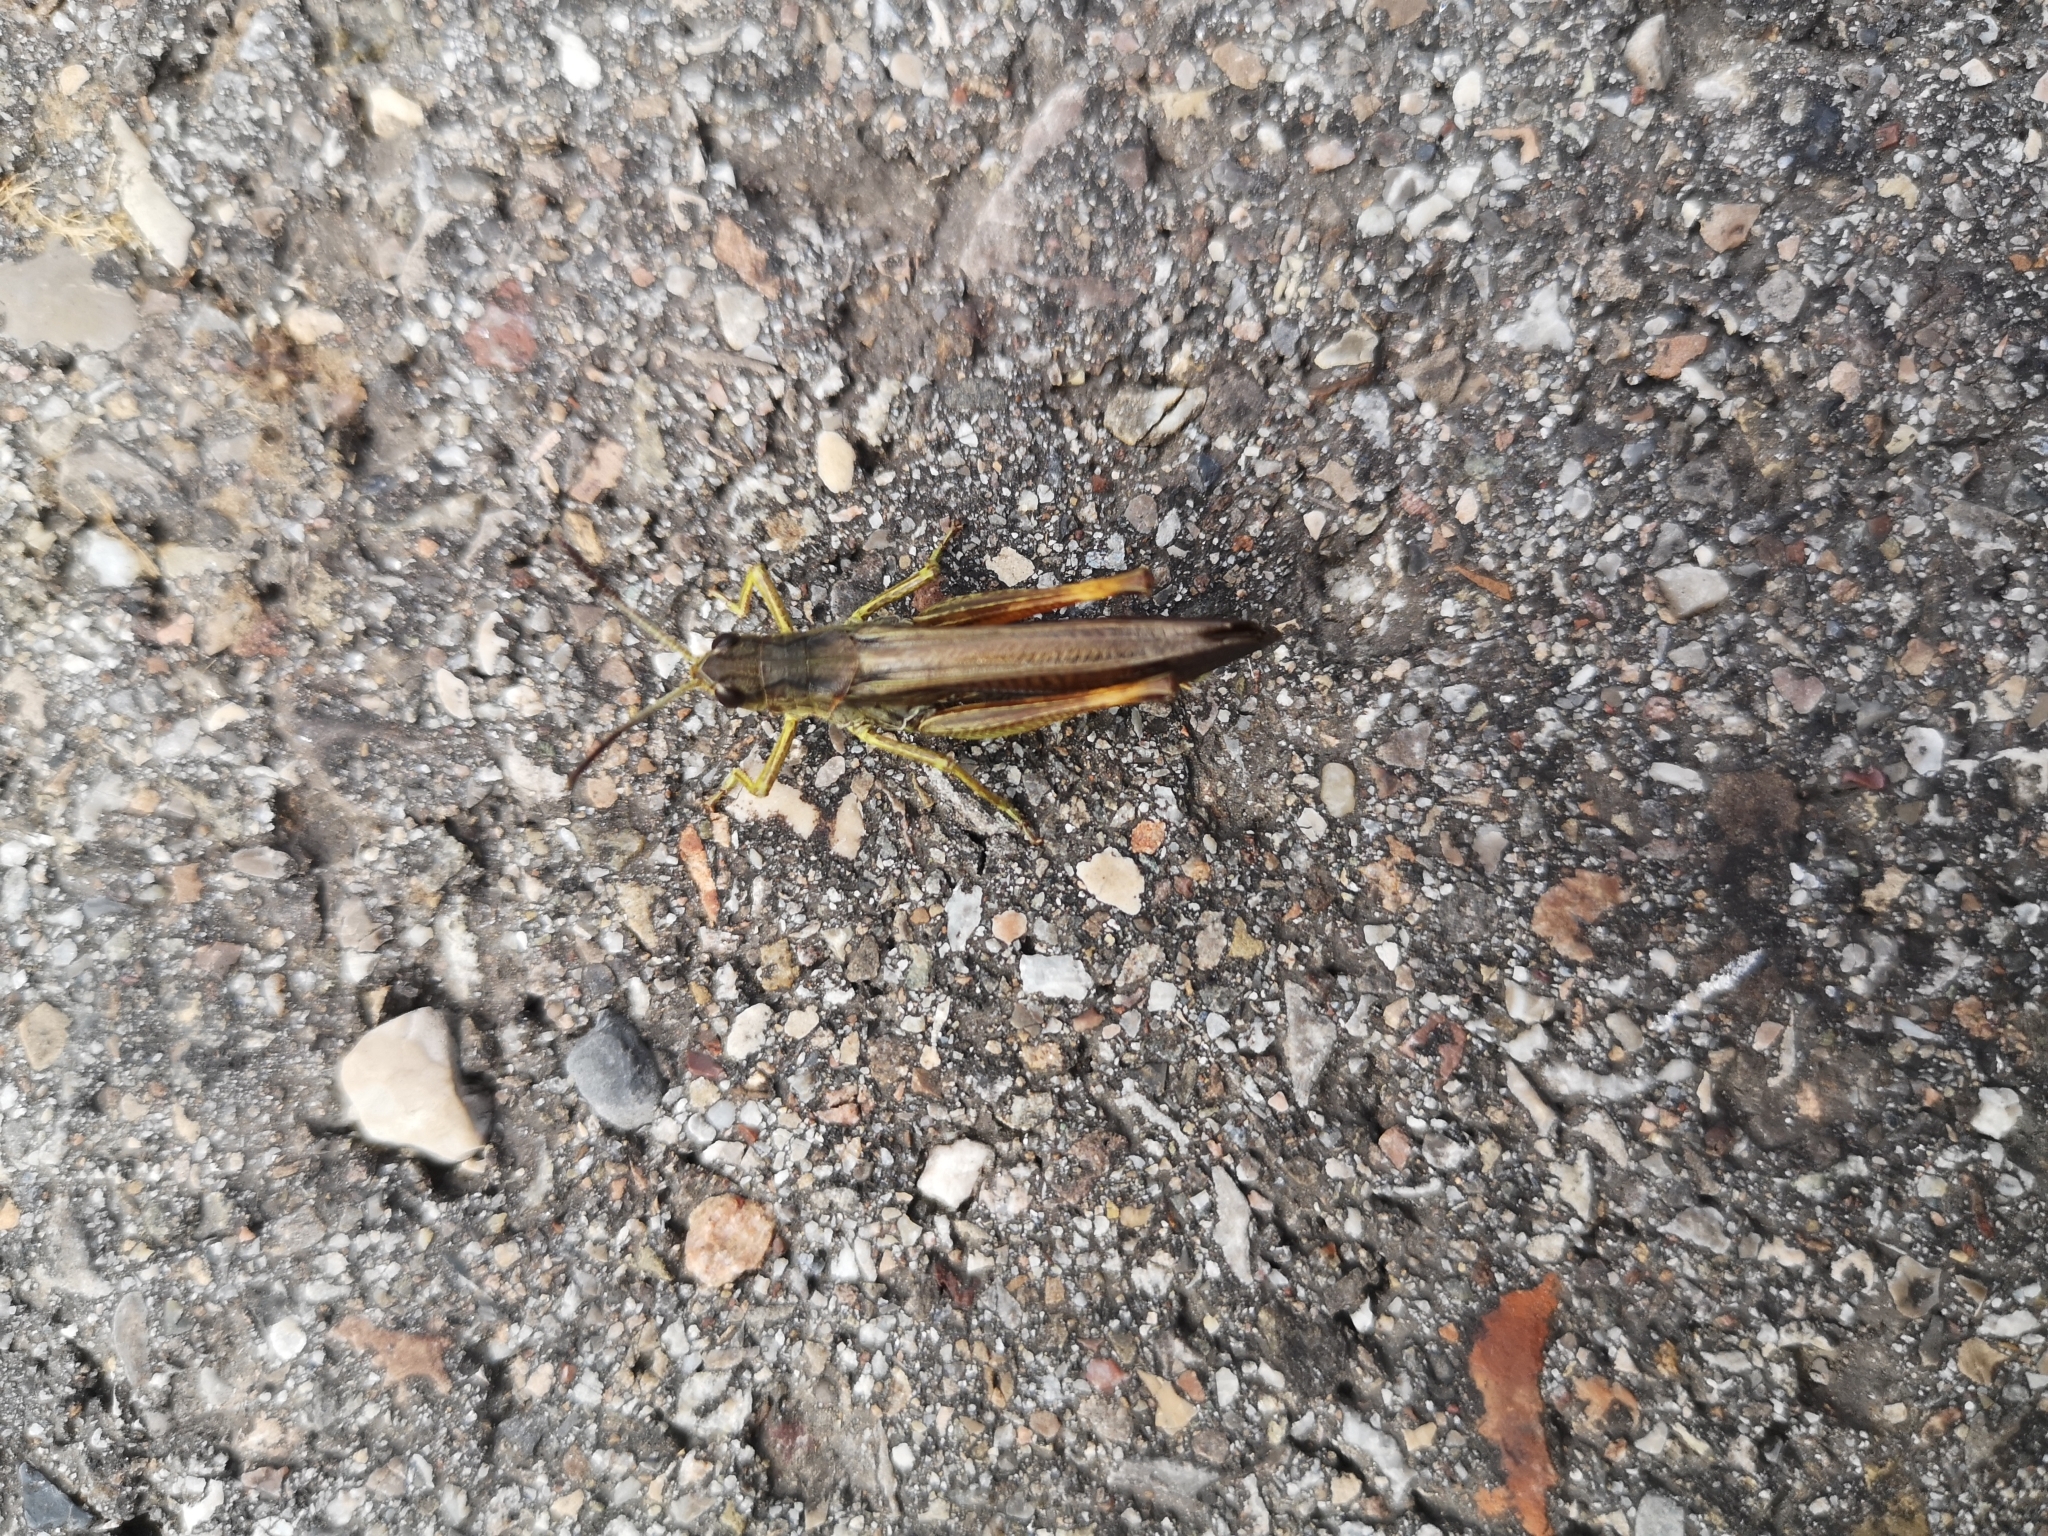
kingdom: Animalia
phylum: Arthropoda
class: Insecta
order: Orthoptera
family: Acrididae
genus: Stauroderus
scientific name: Stauroderus scalaris
